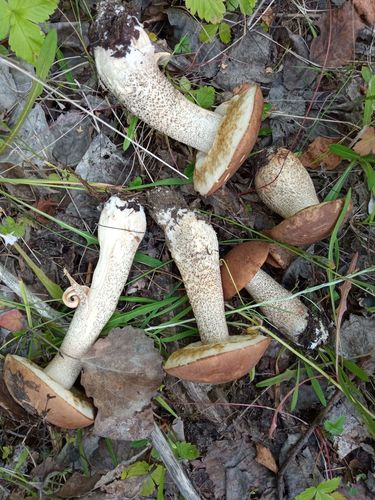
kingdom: Fungi
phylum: Basidiomycota
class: Agaricomycetes
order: Boletales
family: Boletaceae
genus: Leccinum
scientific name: Leccinum
